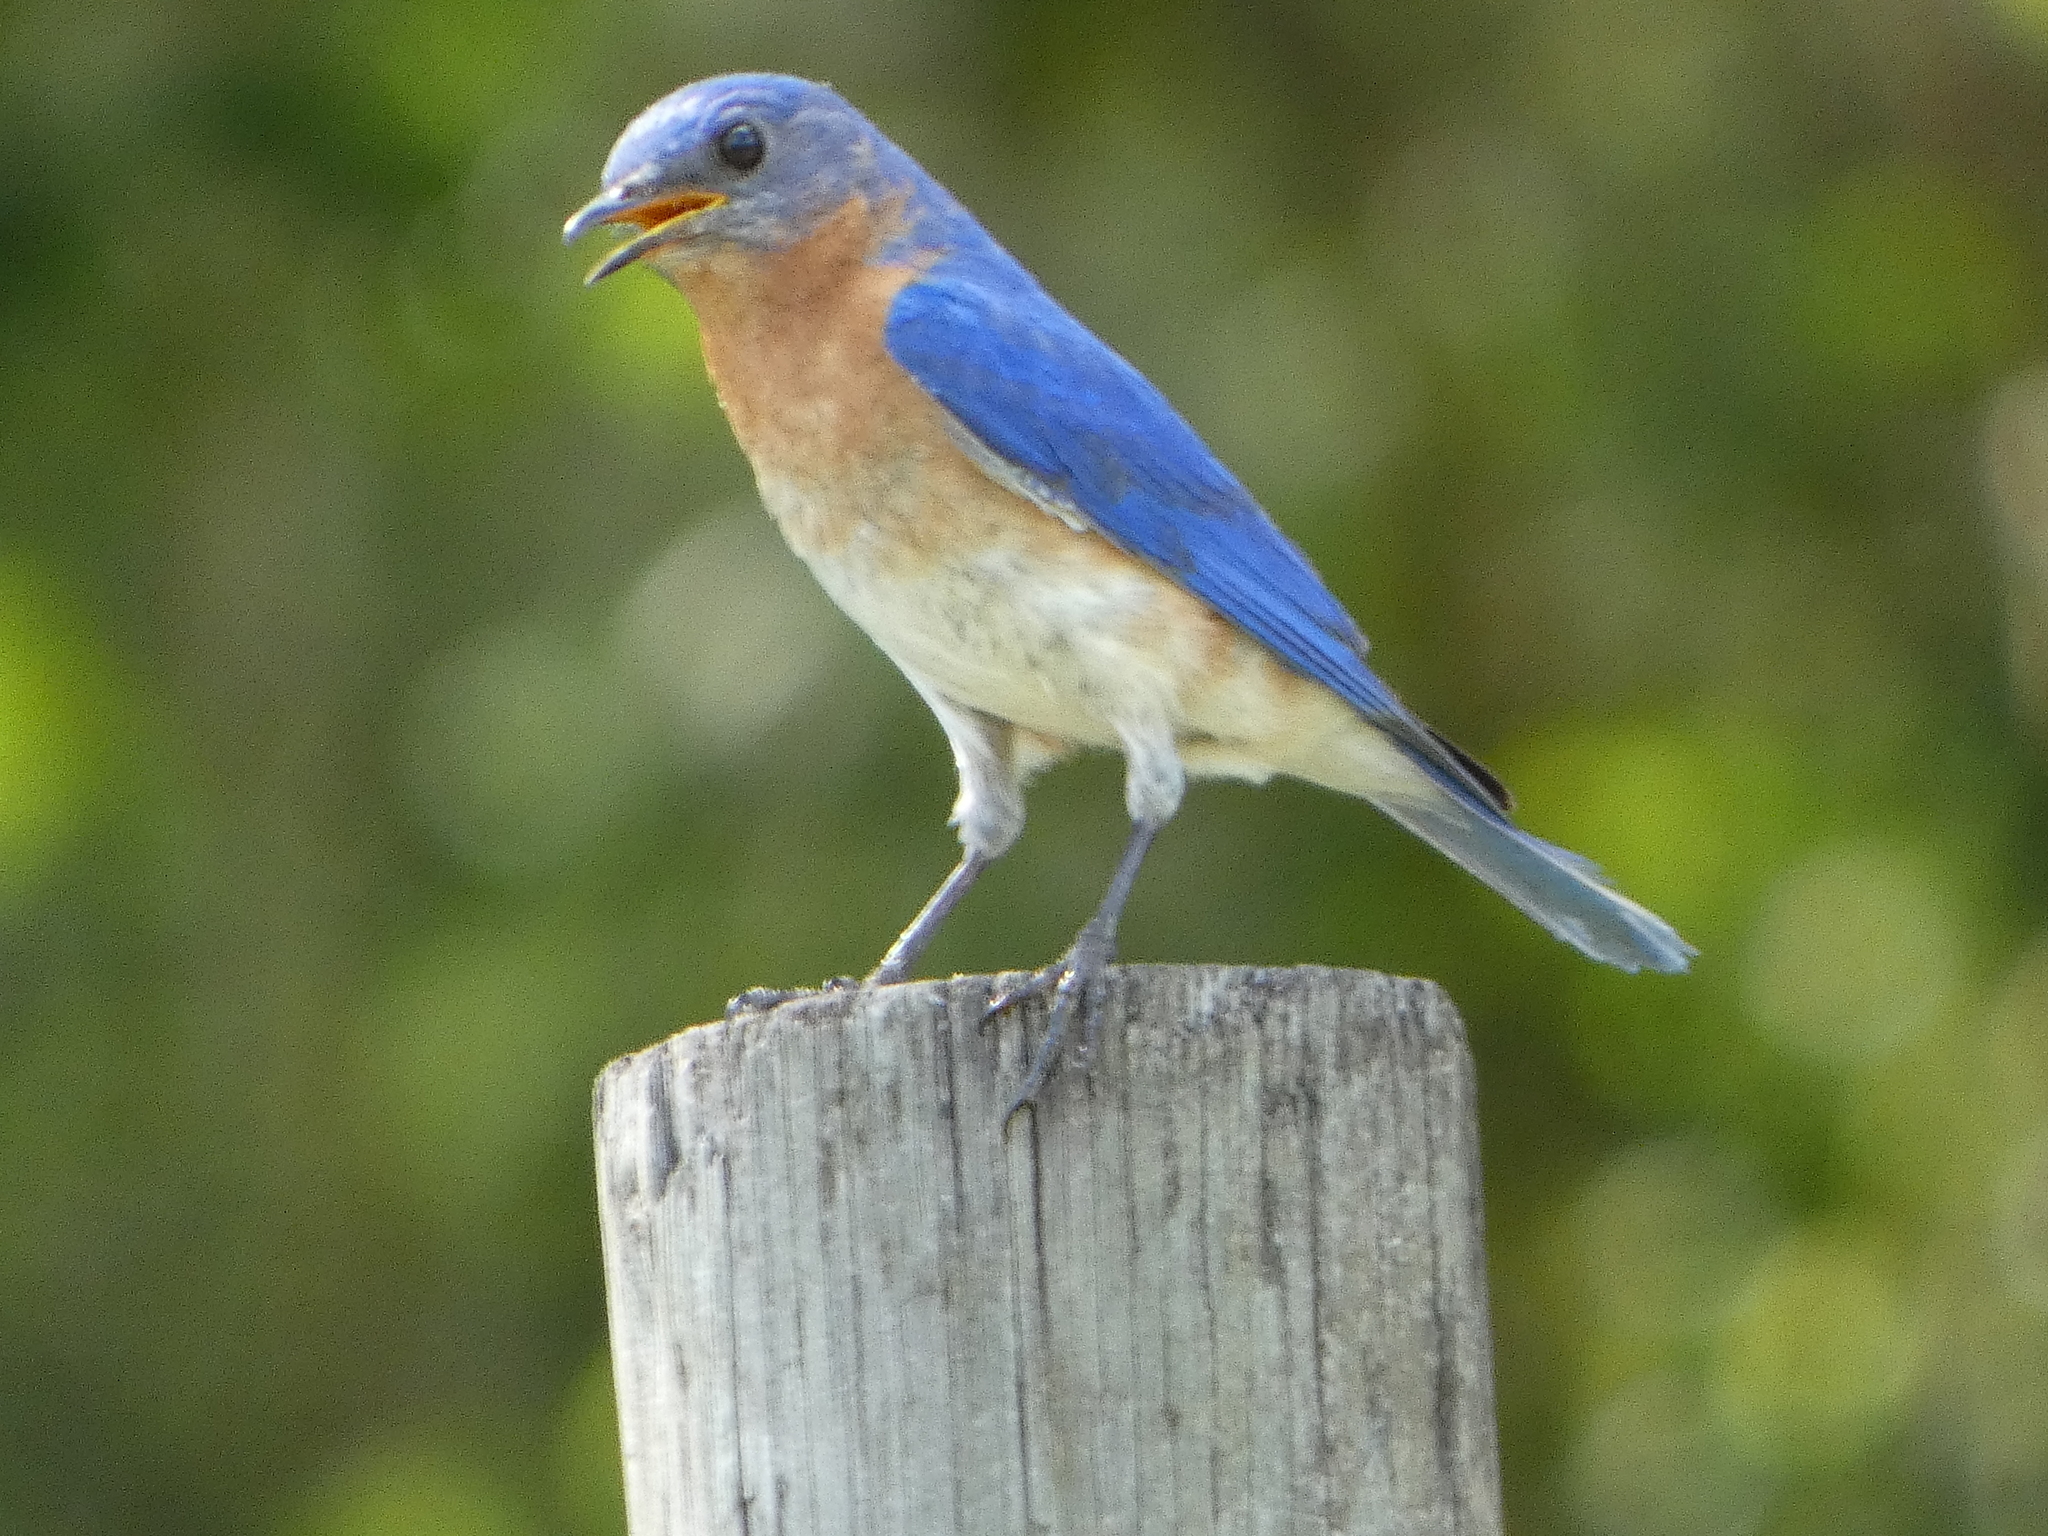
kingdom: Animalia
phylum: Chordata
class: Aves
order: Passeriformes
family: Turdidae
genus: Sialia
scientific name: Sialia sialis
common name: Eastern bluebird
